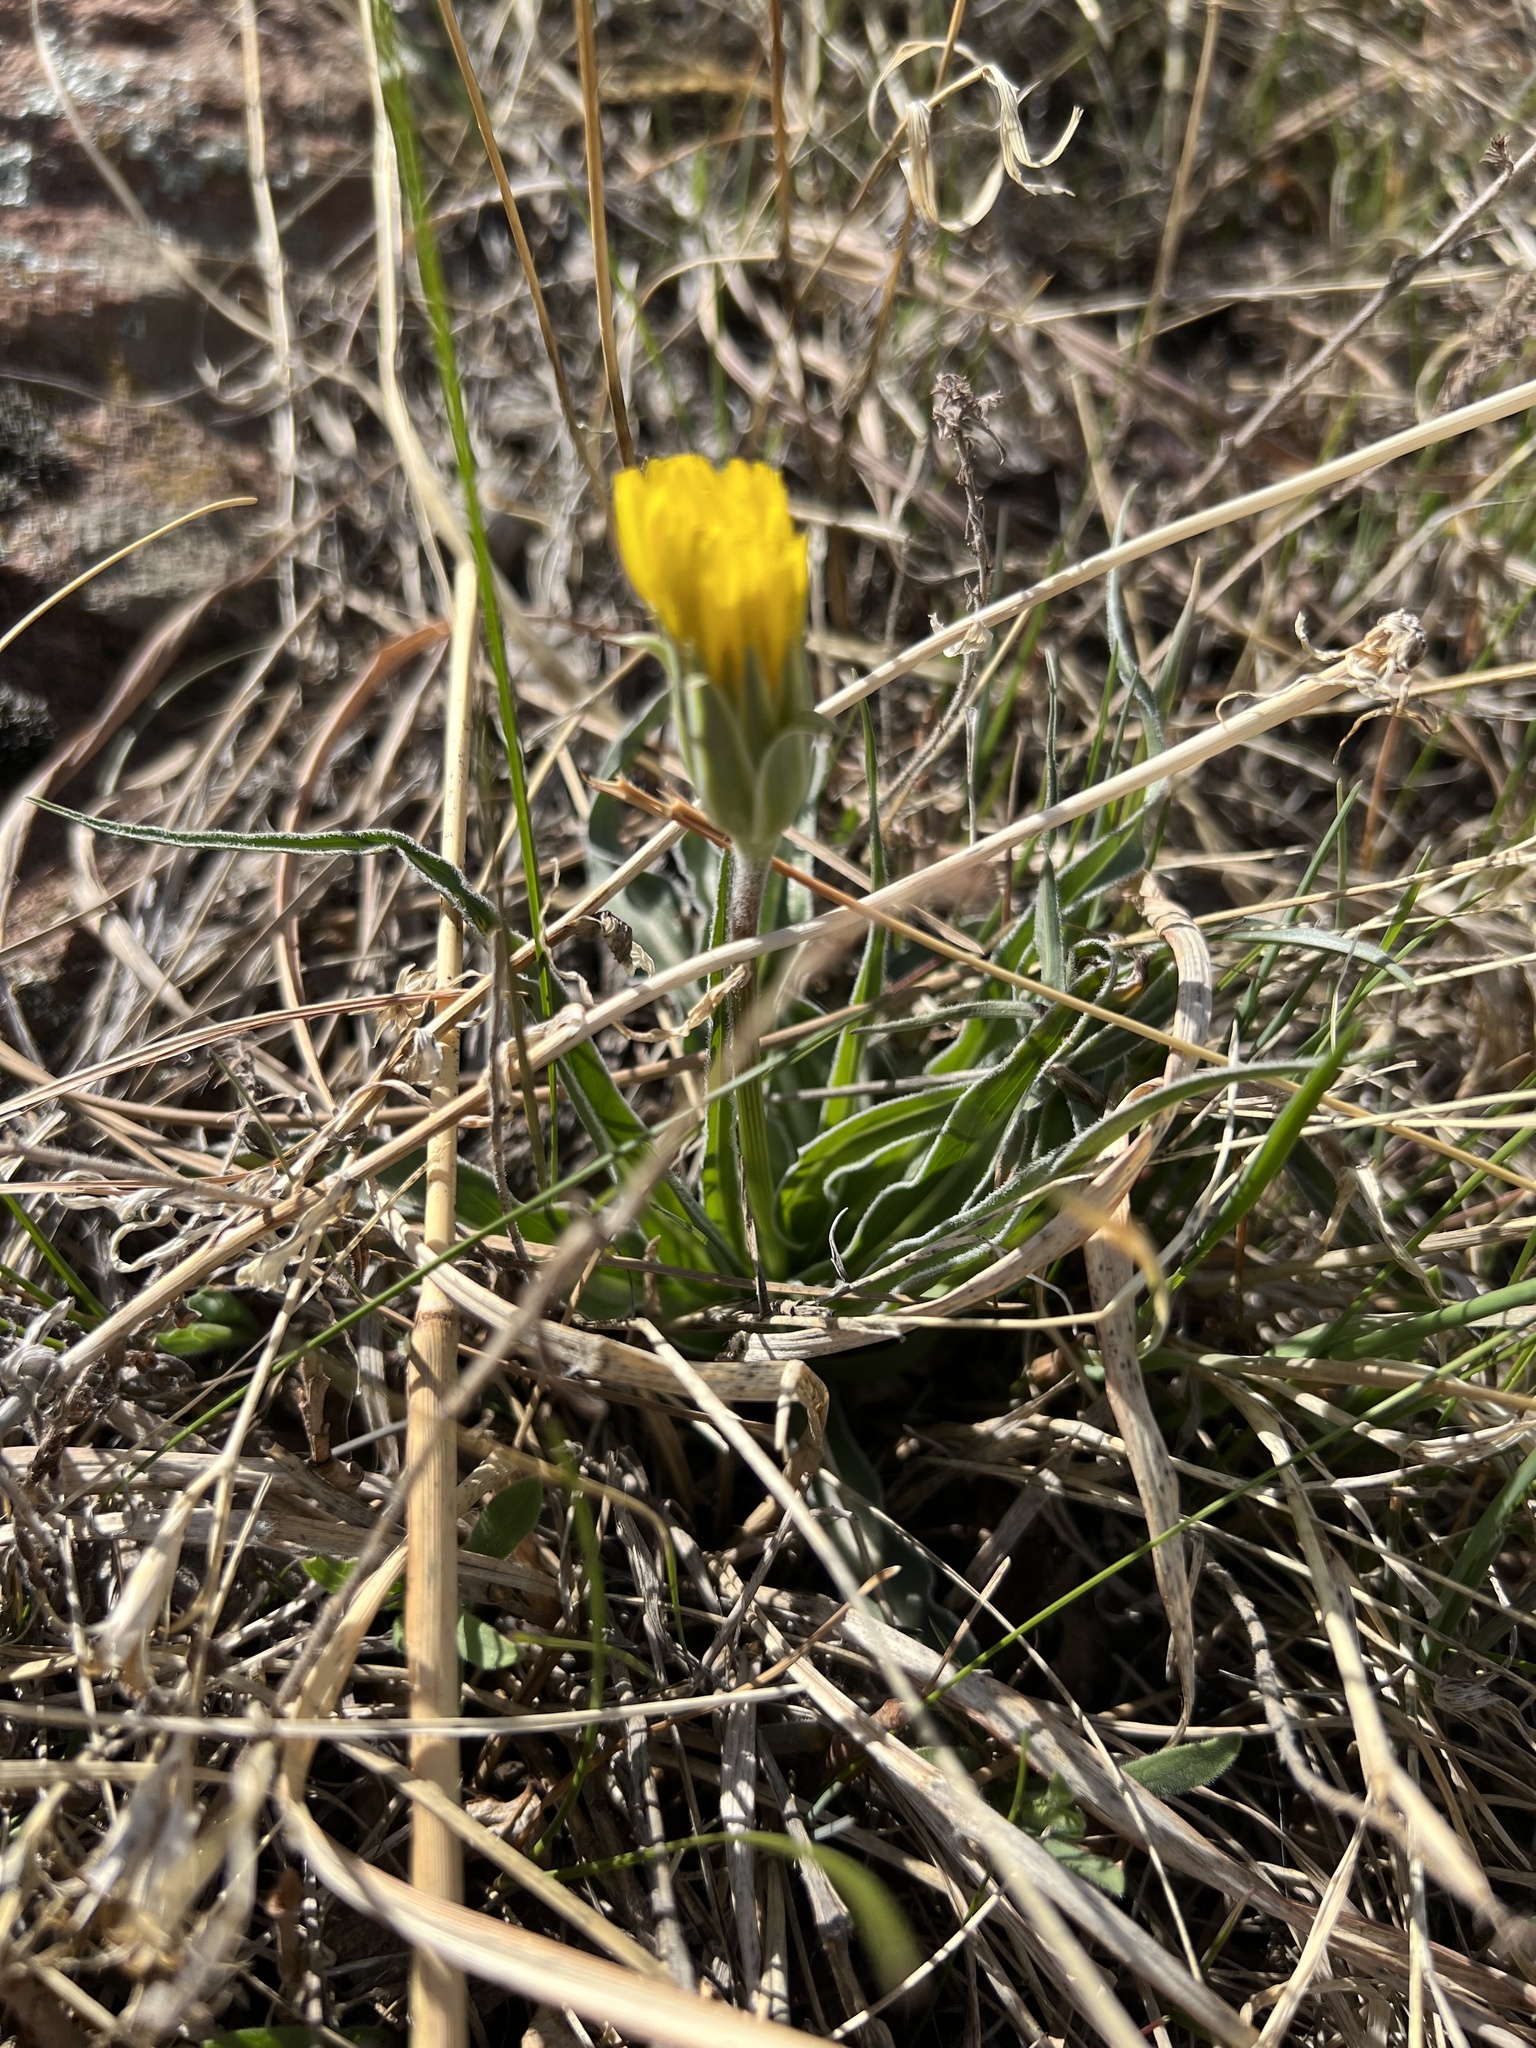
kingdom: Plantae
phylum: Tracheophyta
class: Magnoliopsida
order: Asterales
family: Asteraceae
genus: Microseris
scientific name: Microseris cuspidata
